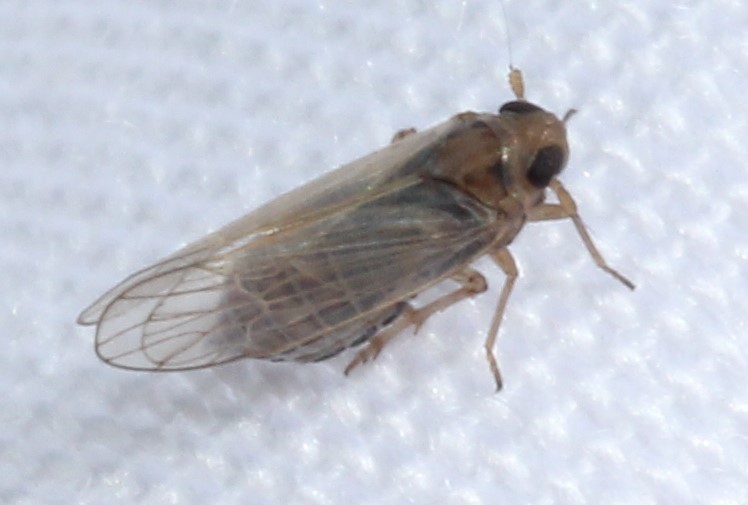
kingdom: Animalia
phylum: Arthropoda
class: Insecta
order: Hemiptera
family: Delphacidae
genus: Kosswigianella
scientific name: Kosswigianella lutulenta
